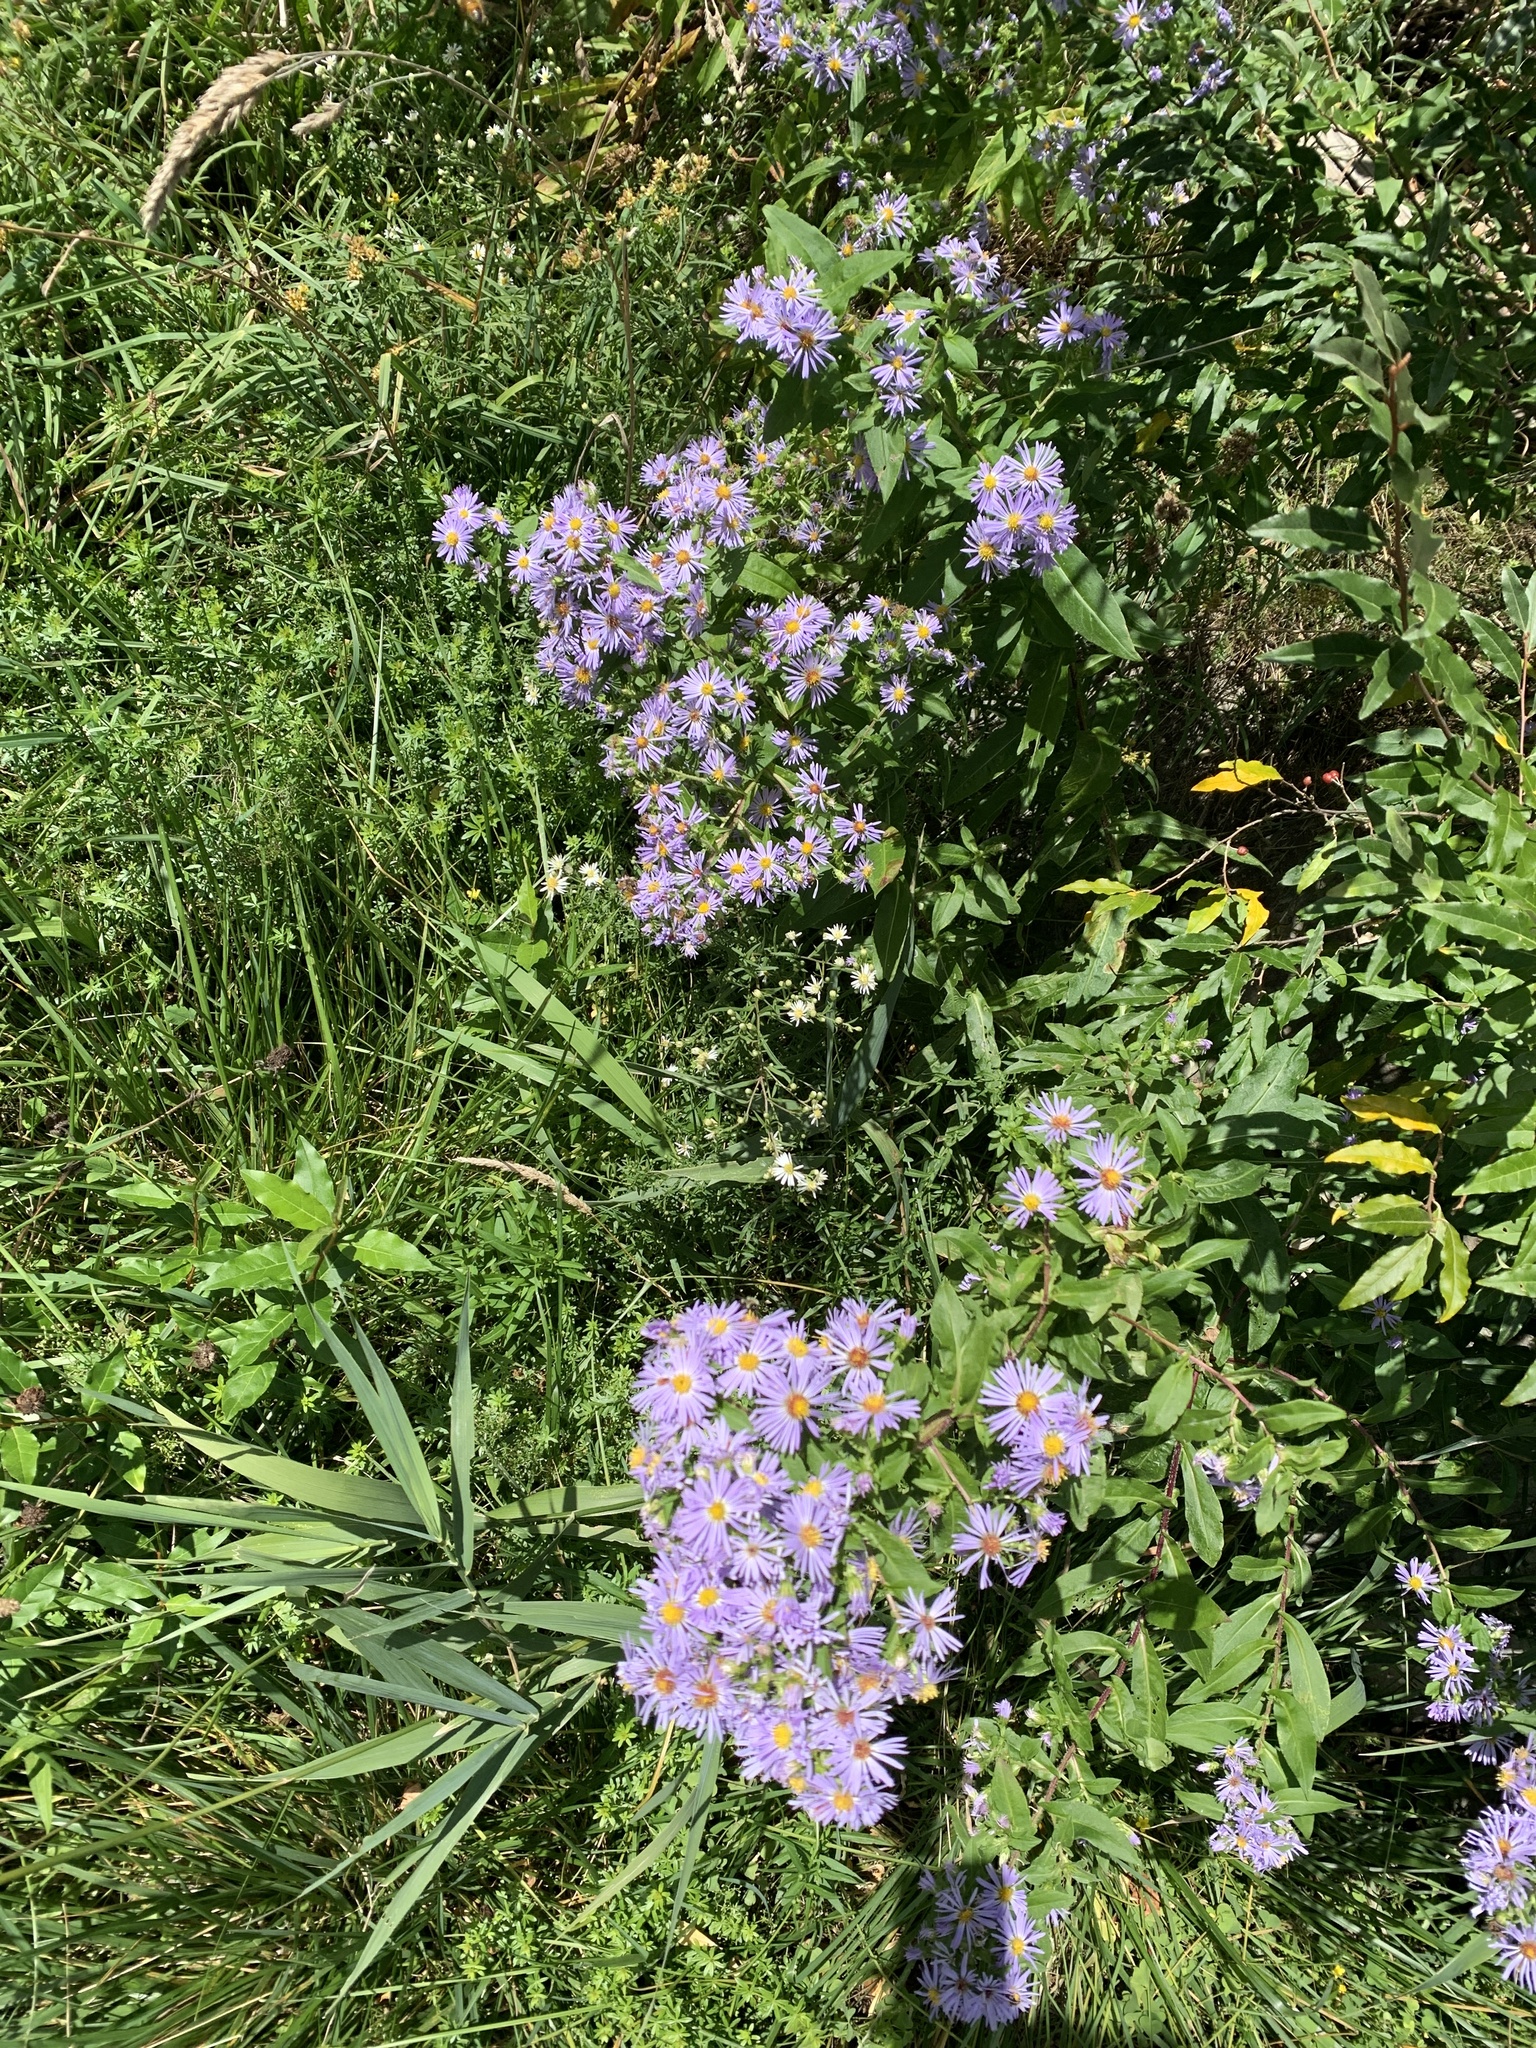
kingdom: Plantae
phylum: Tracheophyta
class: Magnoliopsida
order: Asterales
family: Asteraceae
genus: Symphyotrichum
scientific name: Symphyotrichum puniceum
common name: Bog aster
